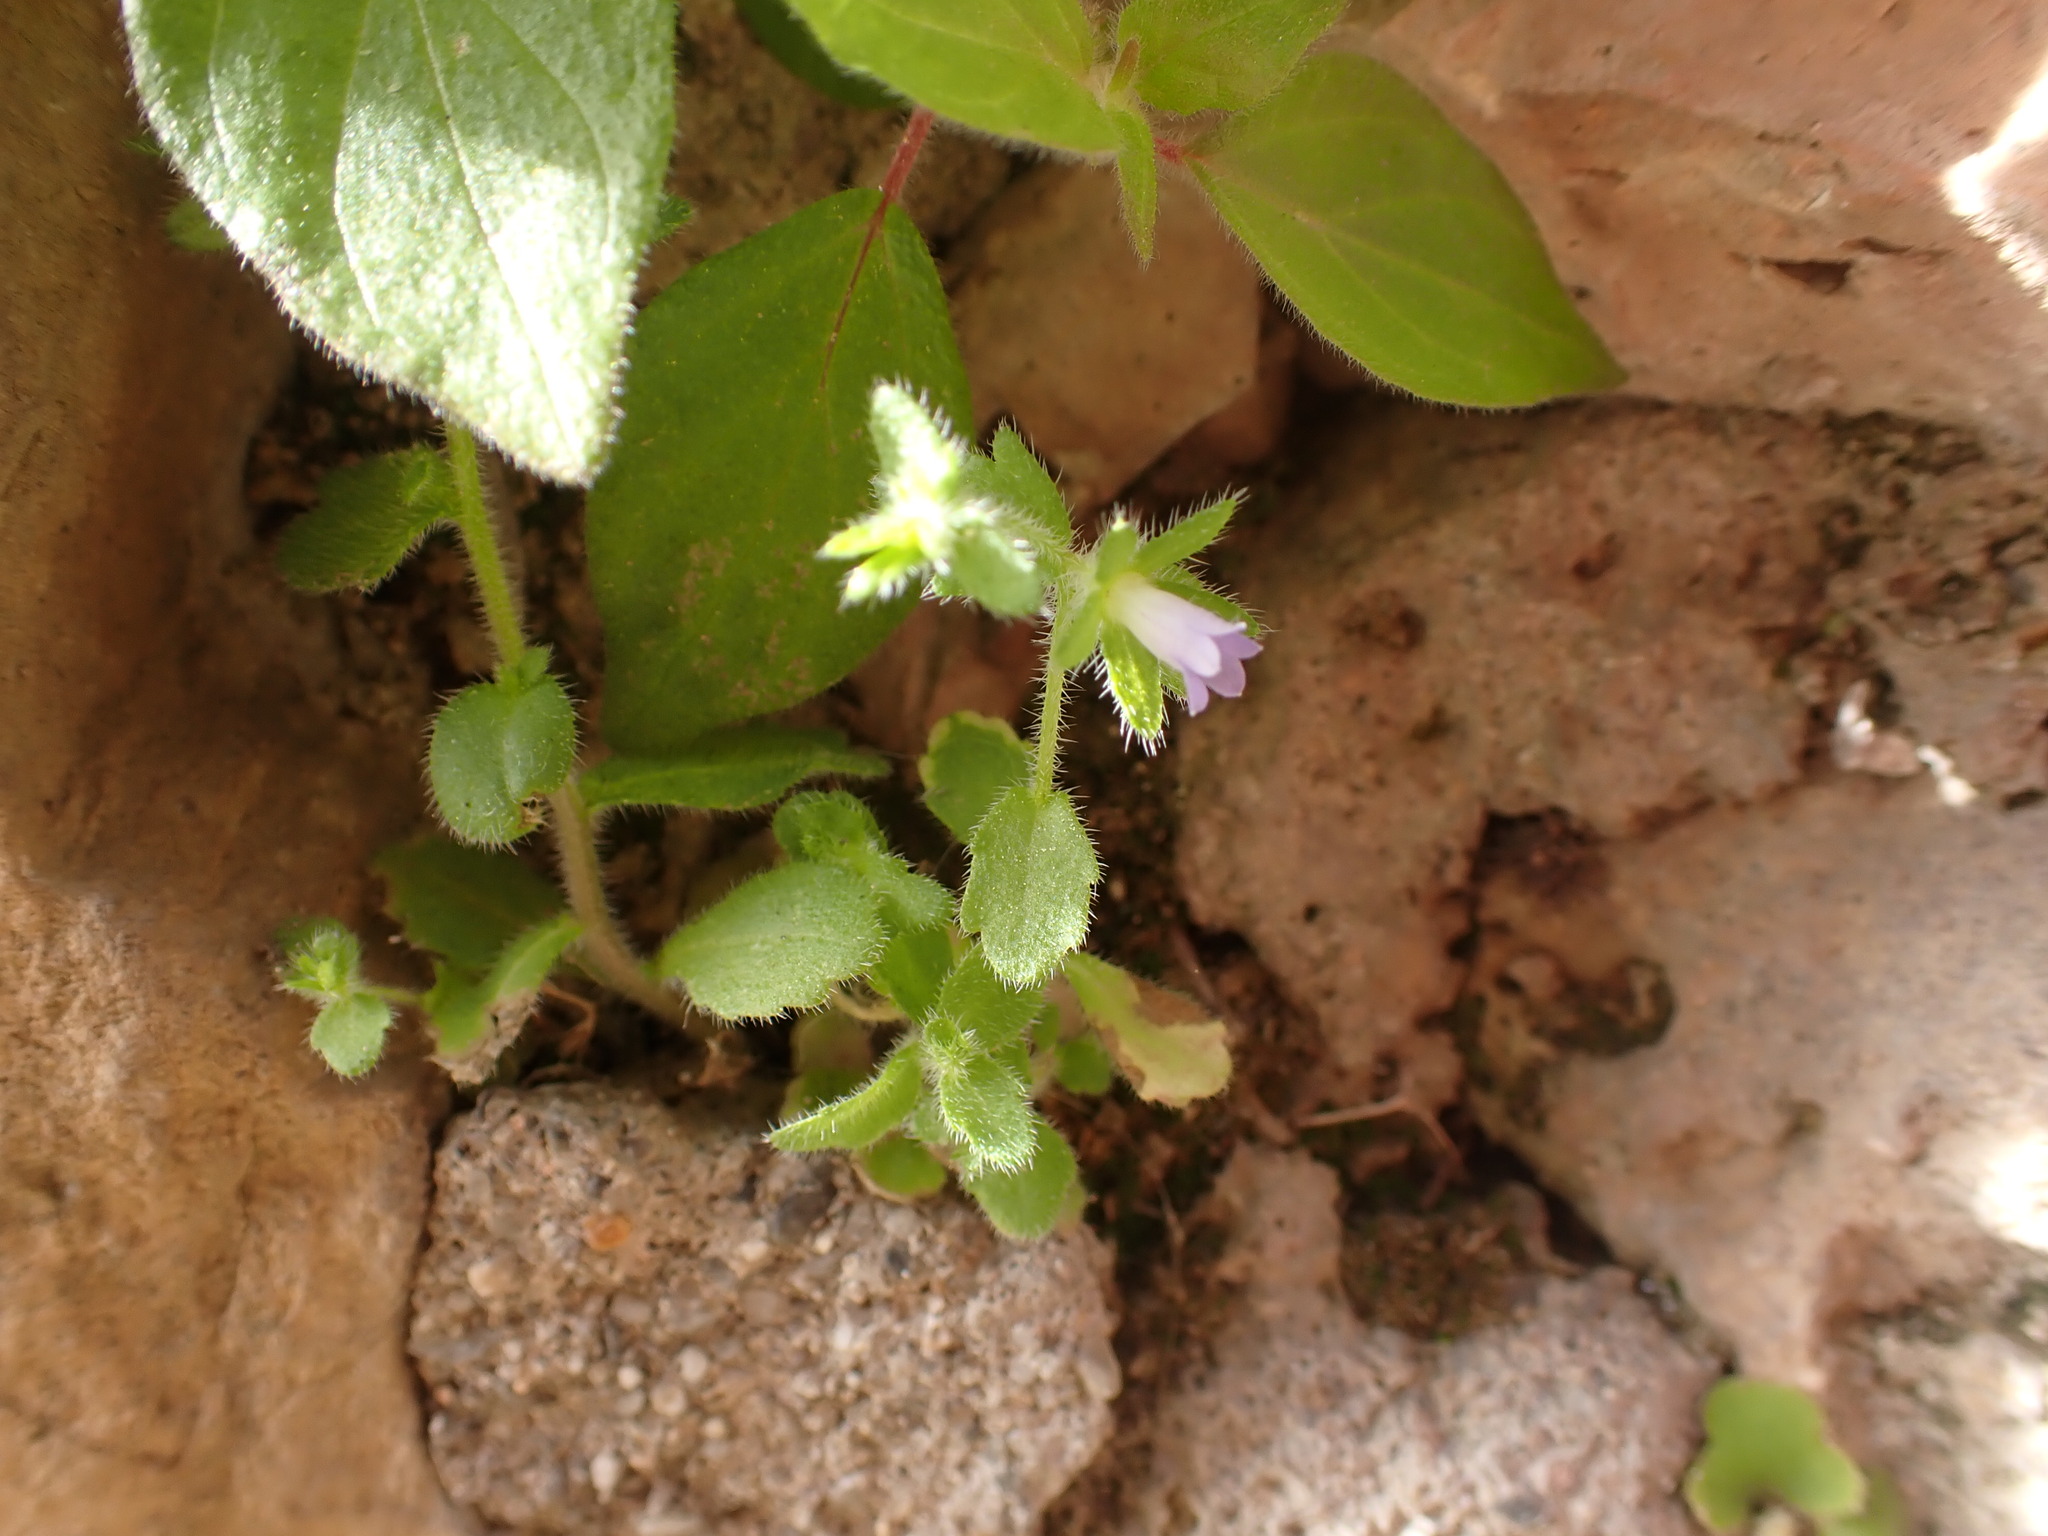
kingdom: Plantae
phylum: Tracheophyta
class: Magnoliopsida
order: Asterales
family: Campanulaceae
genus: Campanula
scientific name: Campanula erinus
